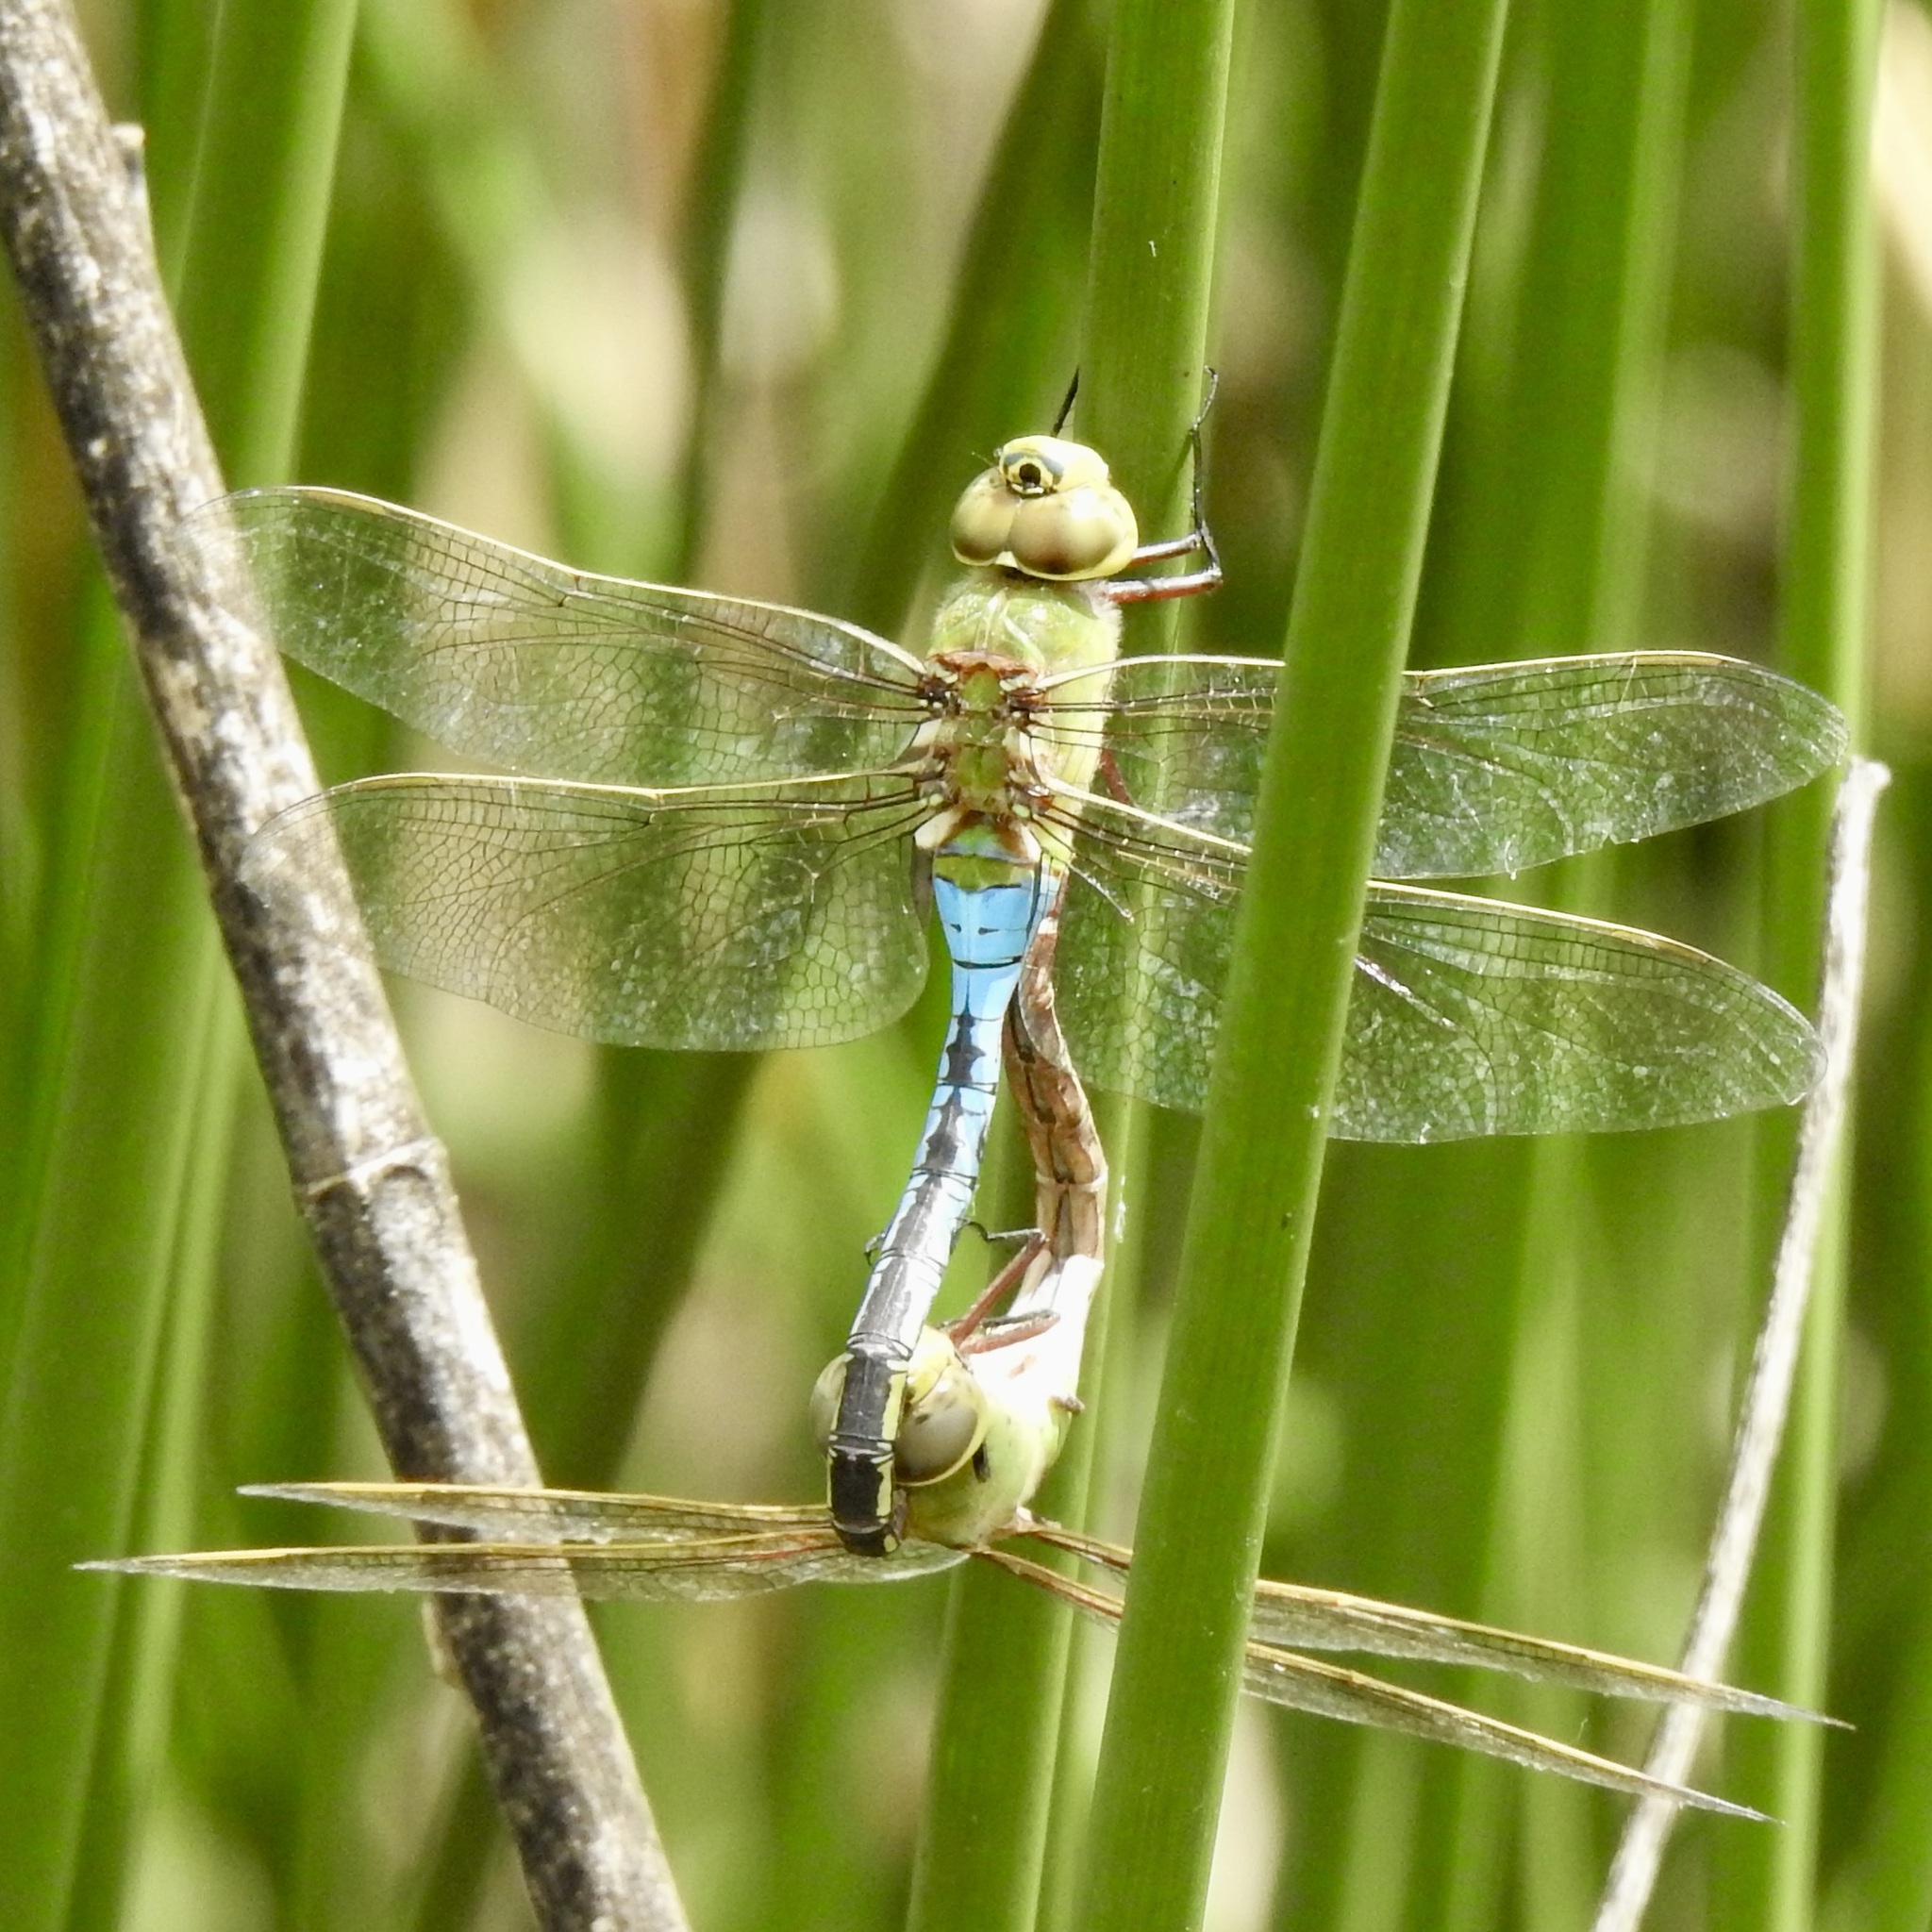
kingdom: Animalia
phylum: Arthropoda
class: Insecta
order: Odonata
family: Aeshnidae
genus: Anax
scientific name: Anax junius
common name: Common green darner
